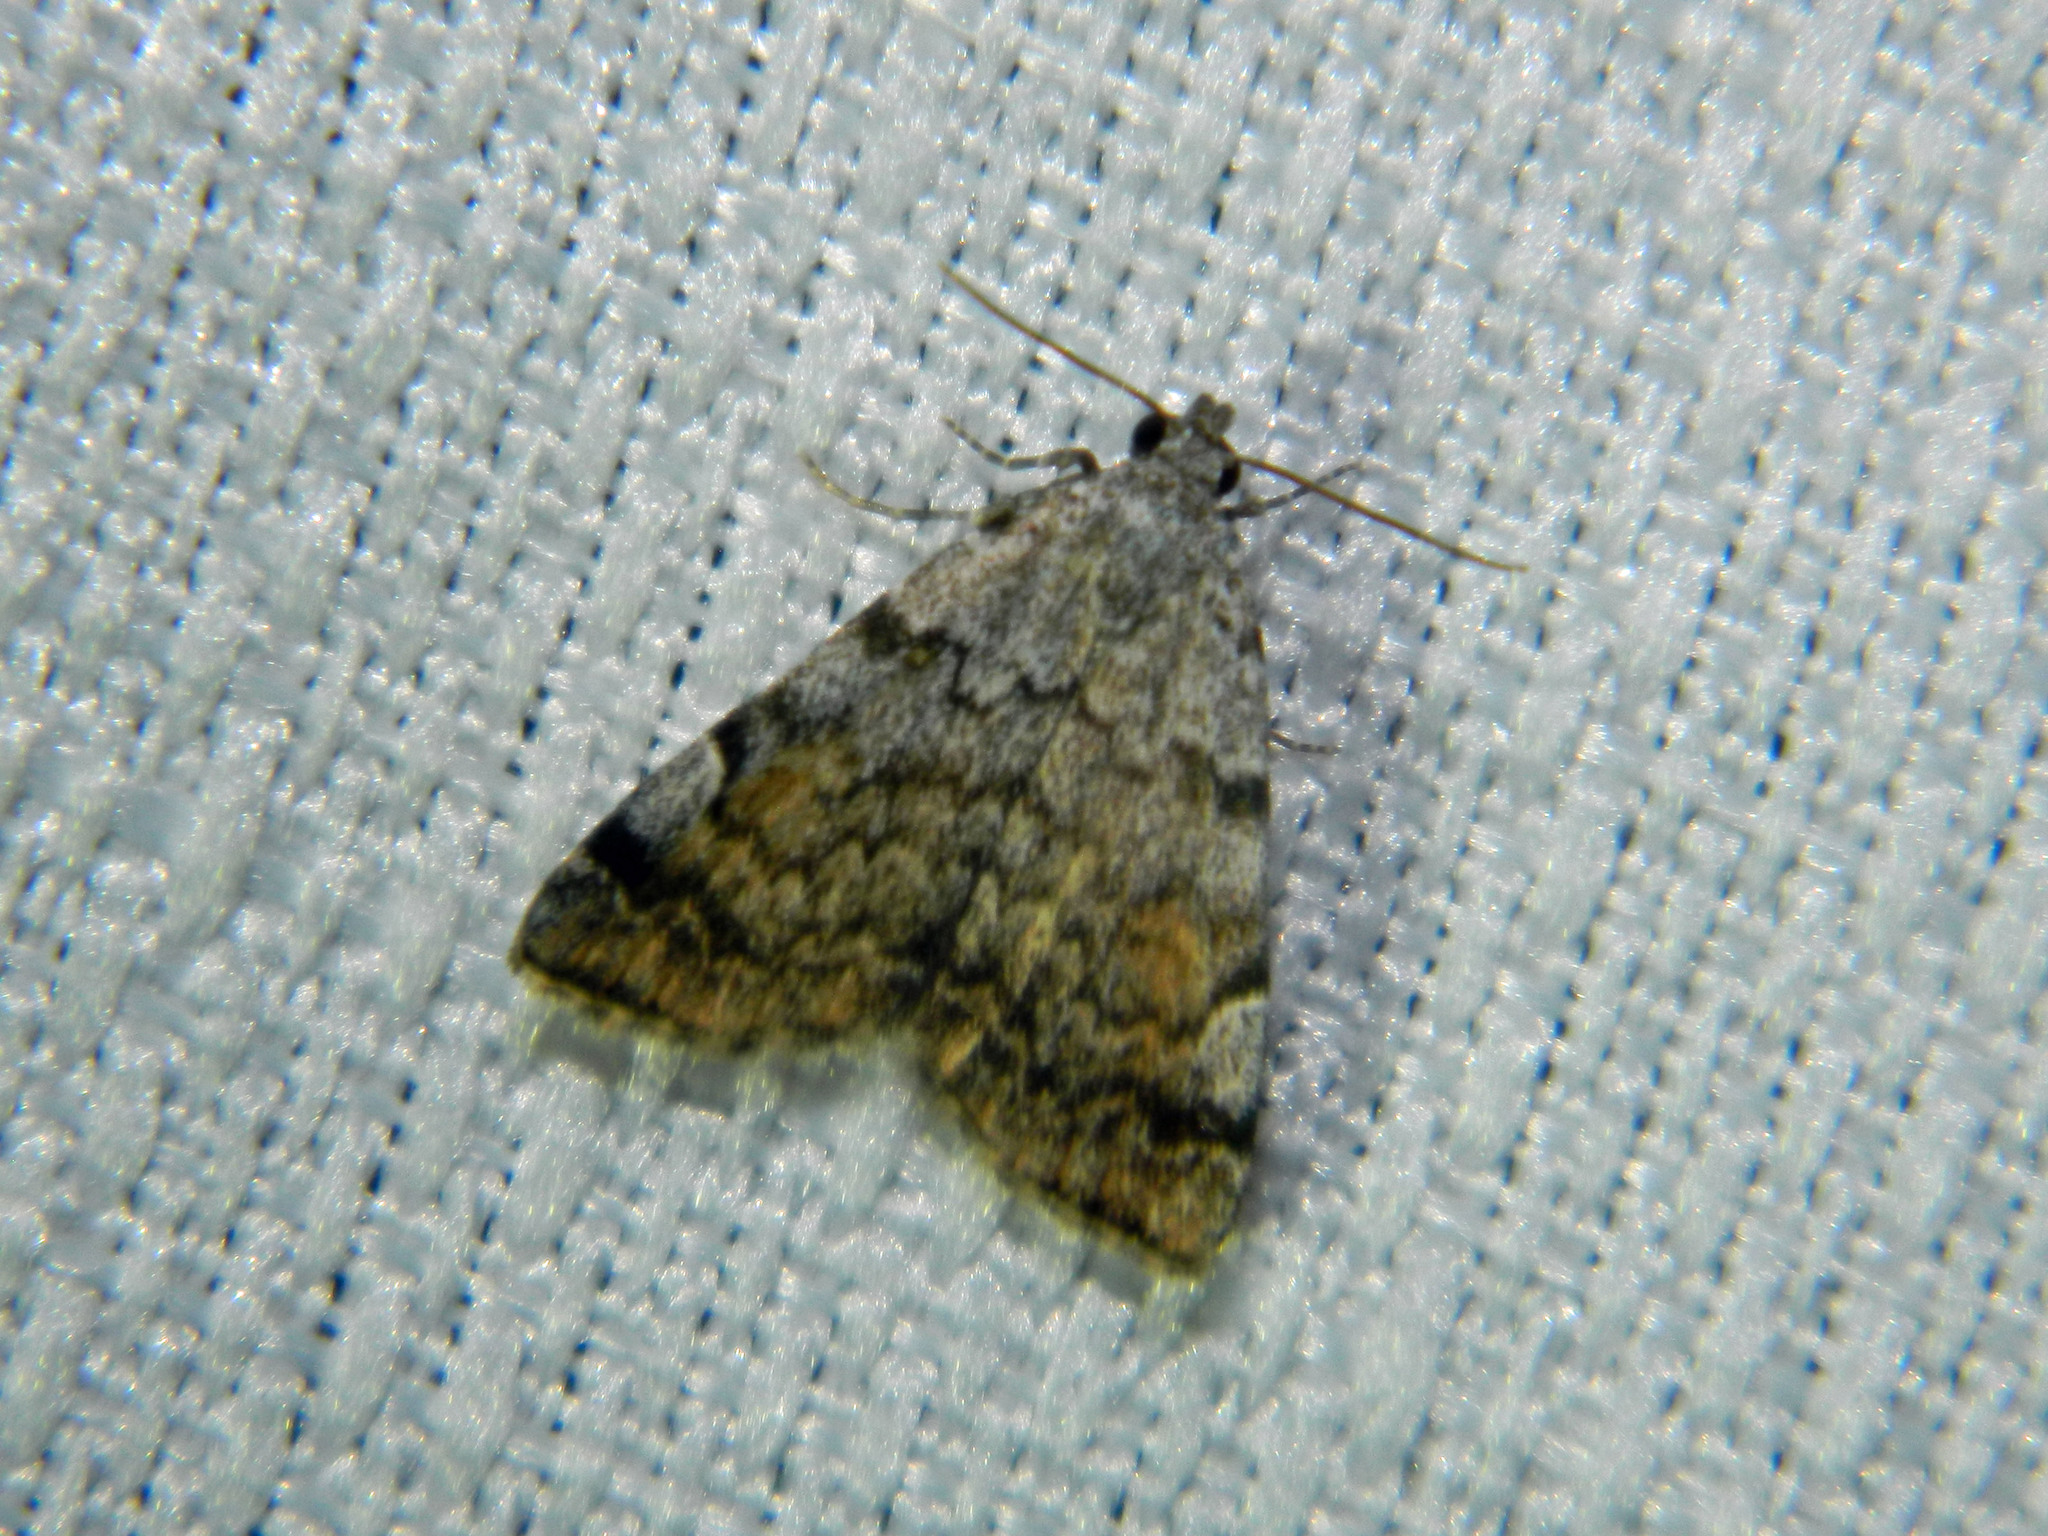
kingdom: Animalia
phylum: Arthropoda
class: Insecta
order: Lepidoptera
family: Erebidae
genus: Idia
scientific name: Idia americalis
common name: American idia moth
